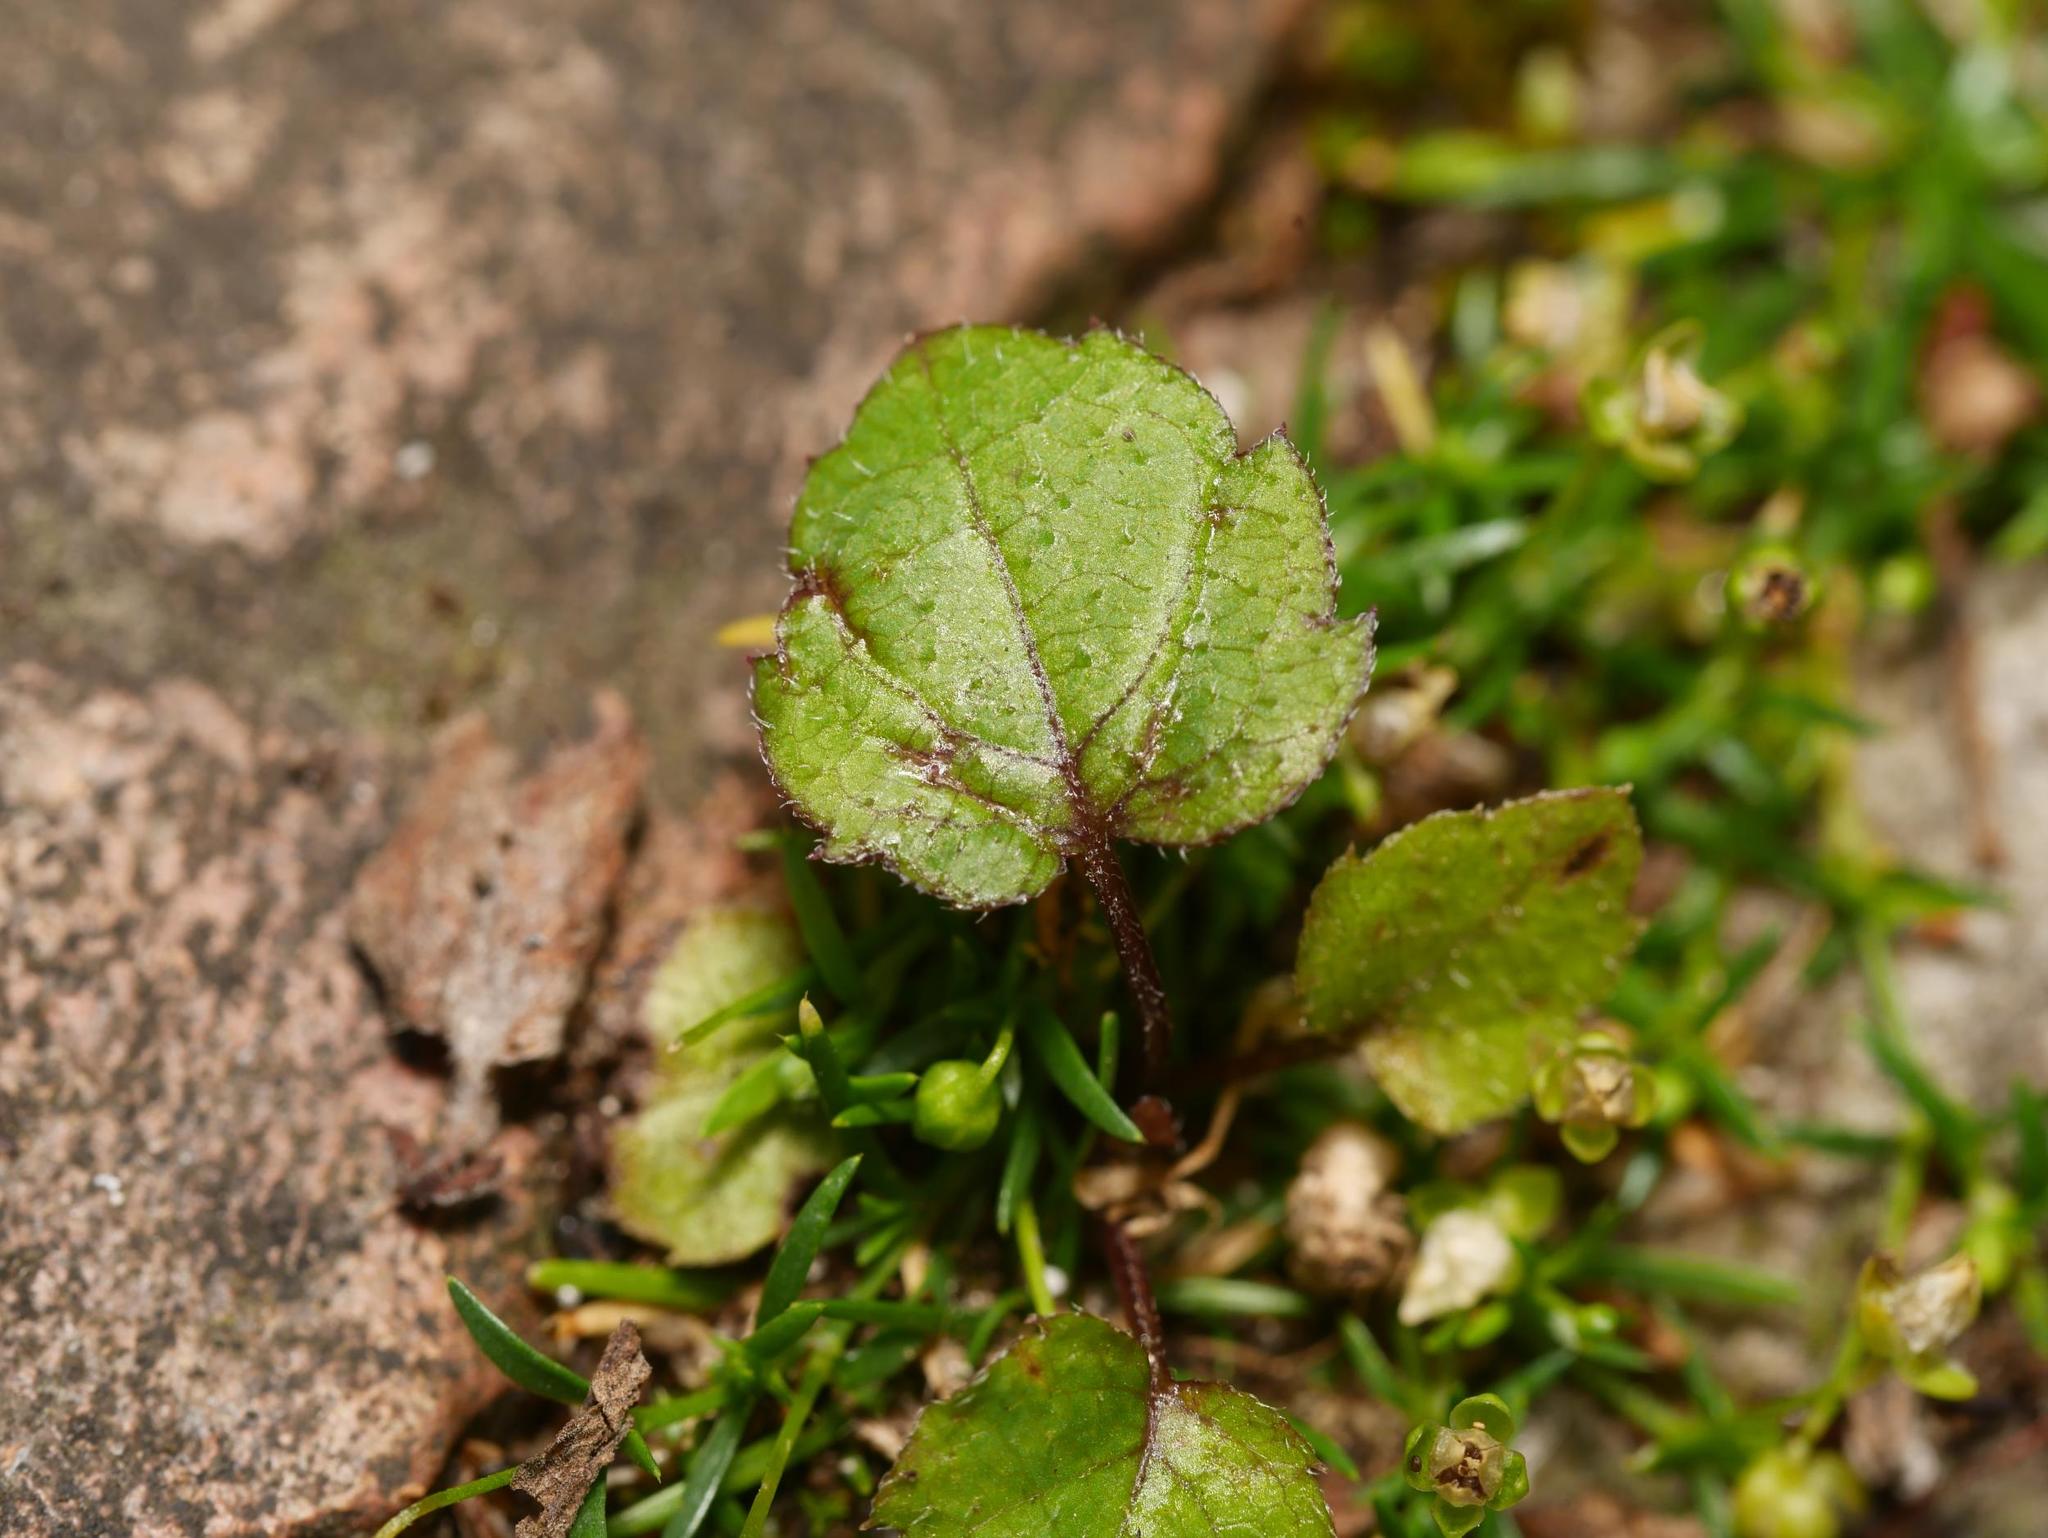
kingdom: Plantae
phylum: Tracheophyta
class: Magnoliopsida
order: Lamiales
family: Plantaginaceae
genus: Veronica
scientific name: Veronica hederifolia
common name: Ivy-leaved speedwell
